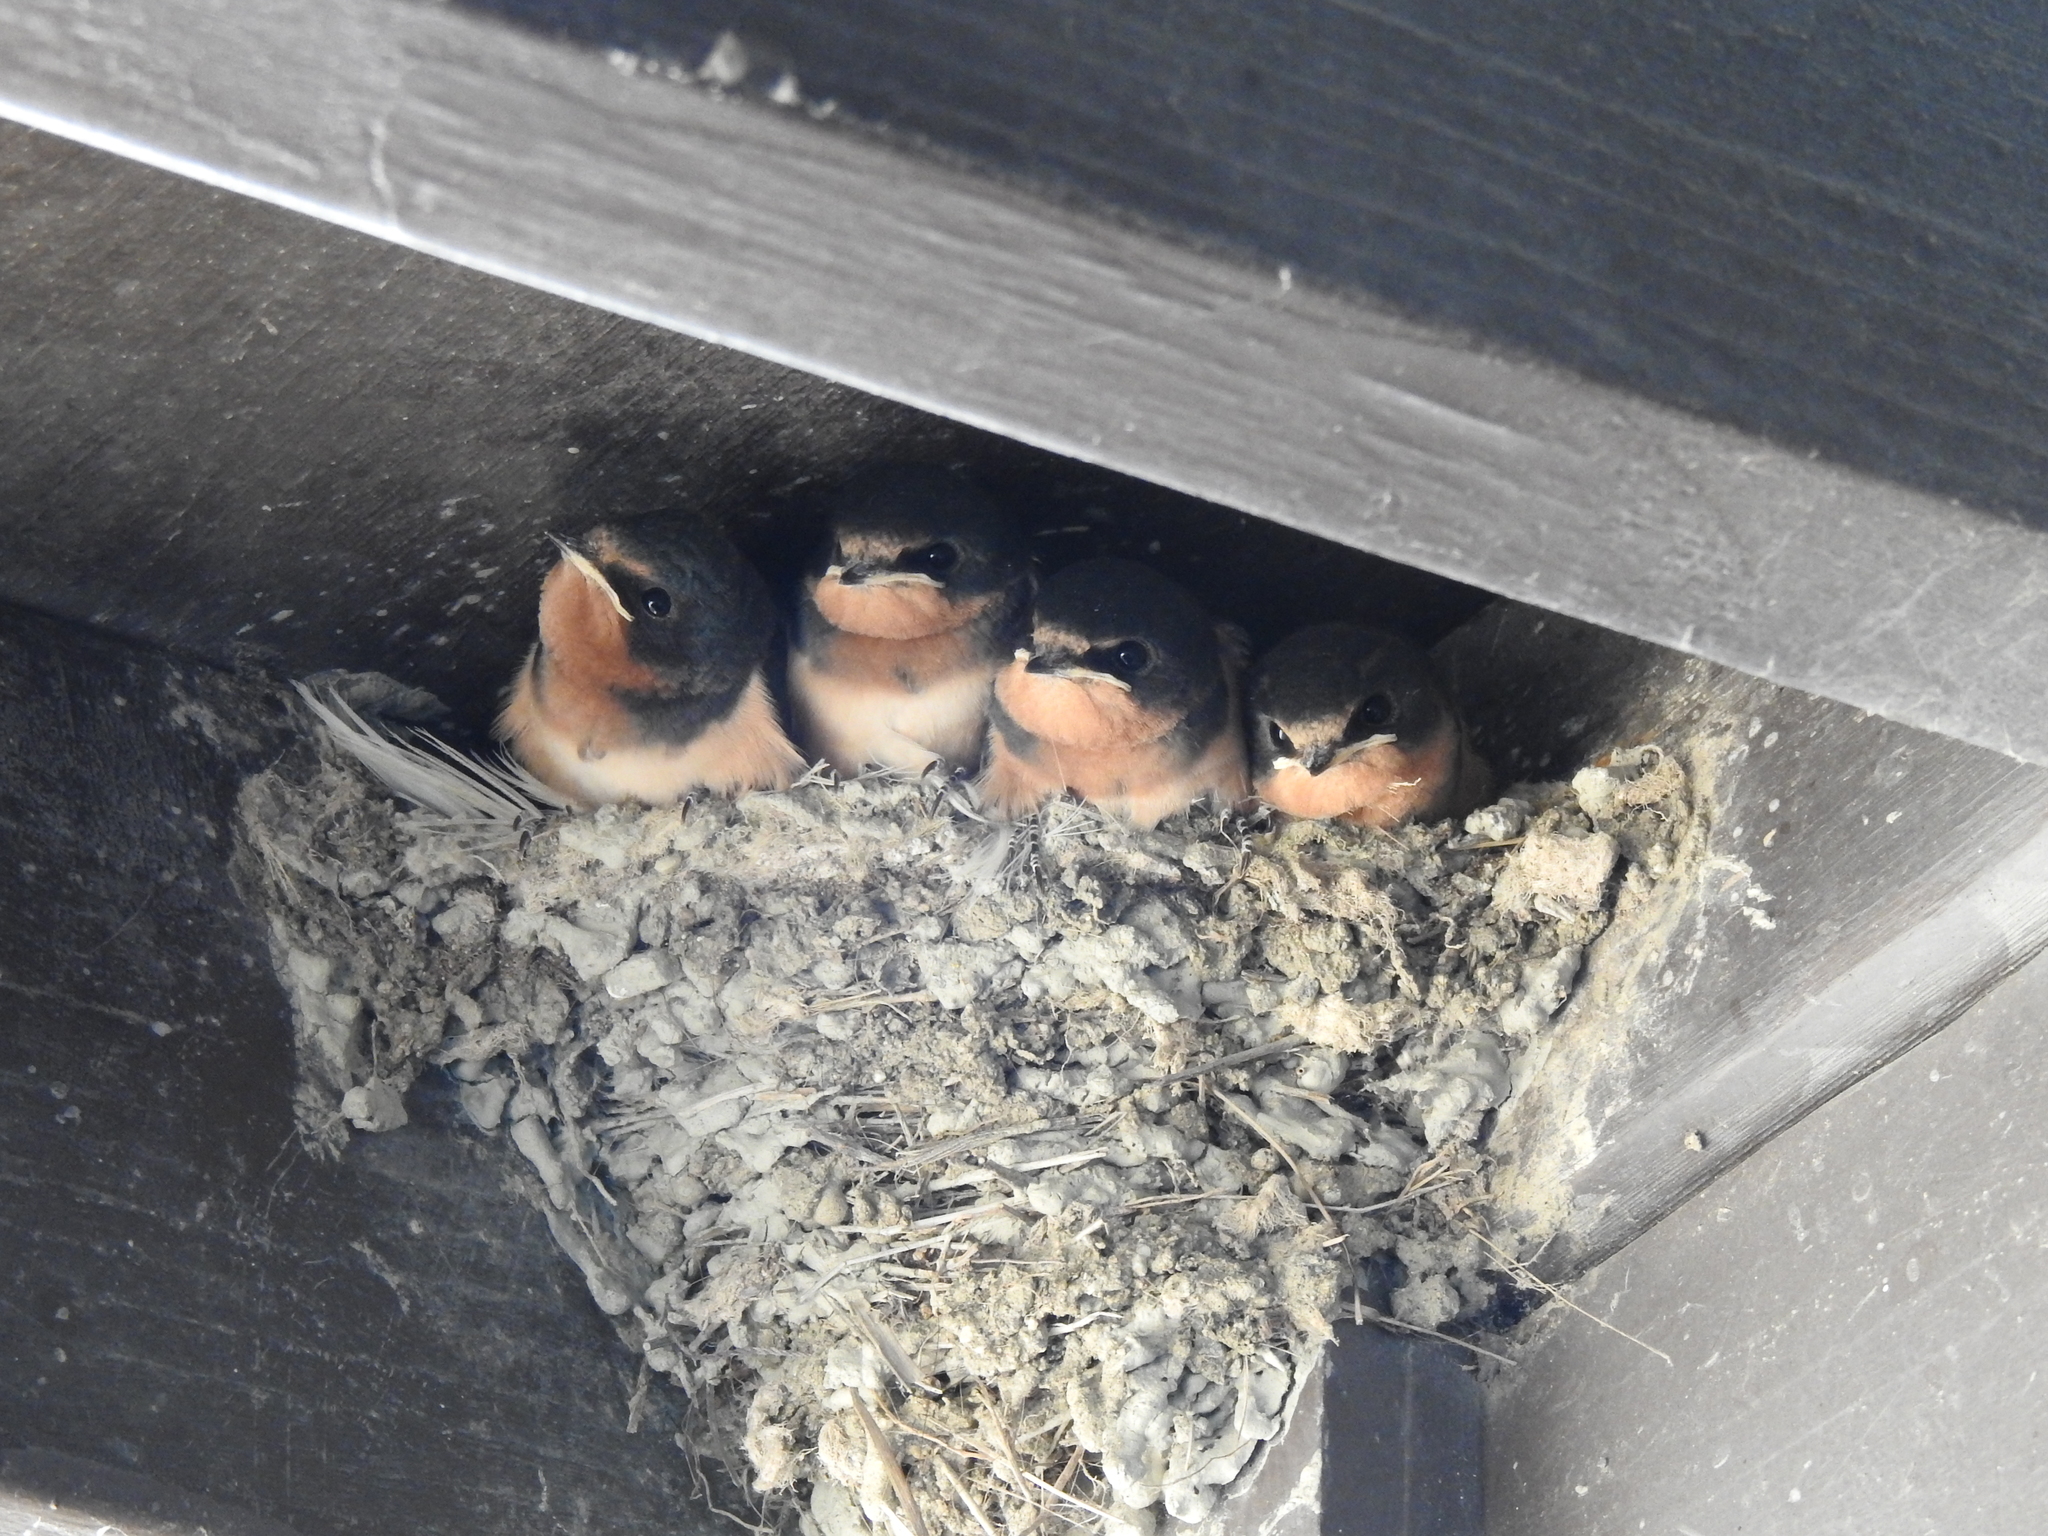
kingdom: Animalia
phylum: Chordata
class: Aves
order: Passeriformes
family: Hirundinidae
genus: Hirundo
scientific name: Hirundo rustica
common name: Barn swallow
